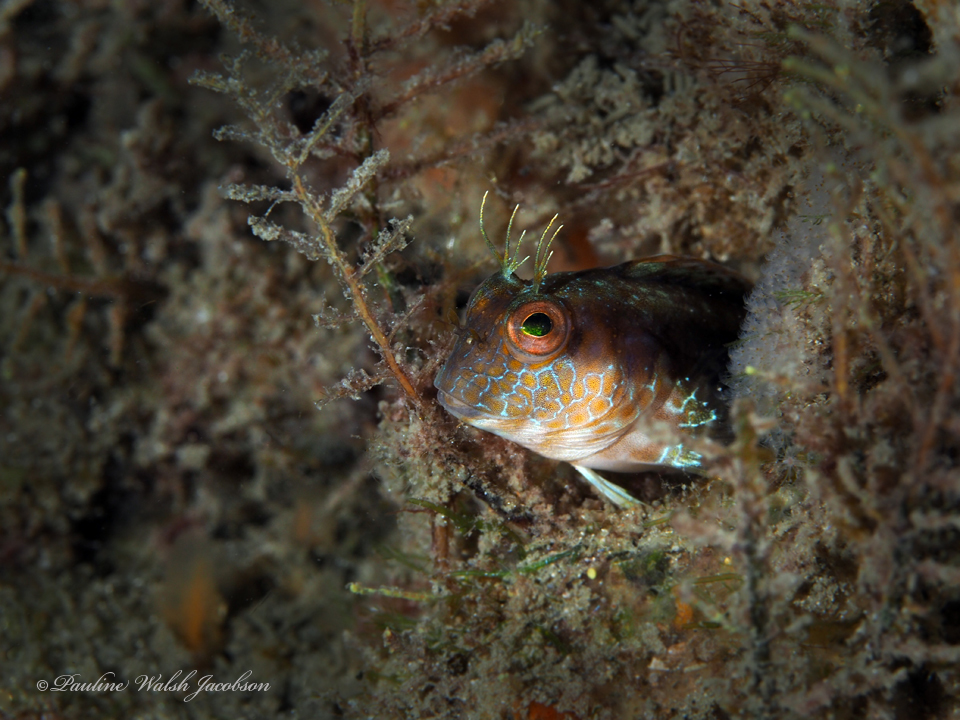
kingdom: Animalia
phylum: Chordata
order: Perciformes
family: Blenniidae
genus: Parablennius
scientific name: Parablennius marmoreus
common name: Seaweed blenny
